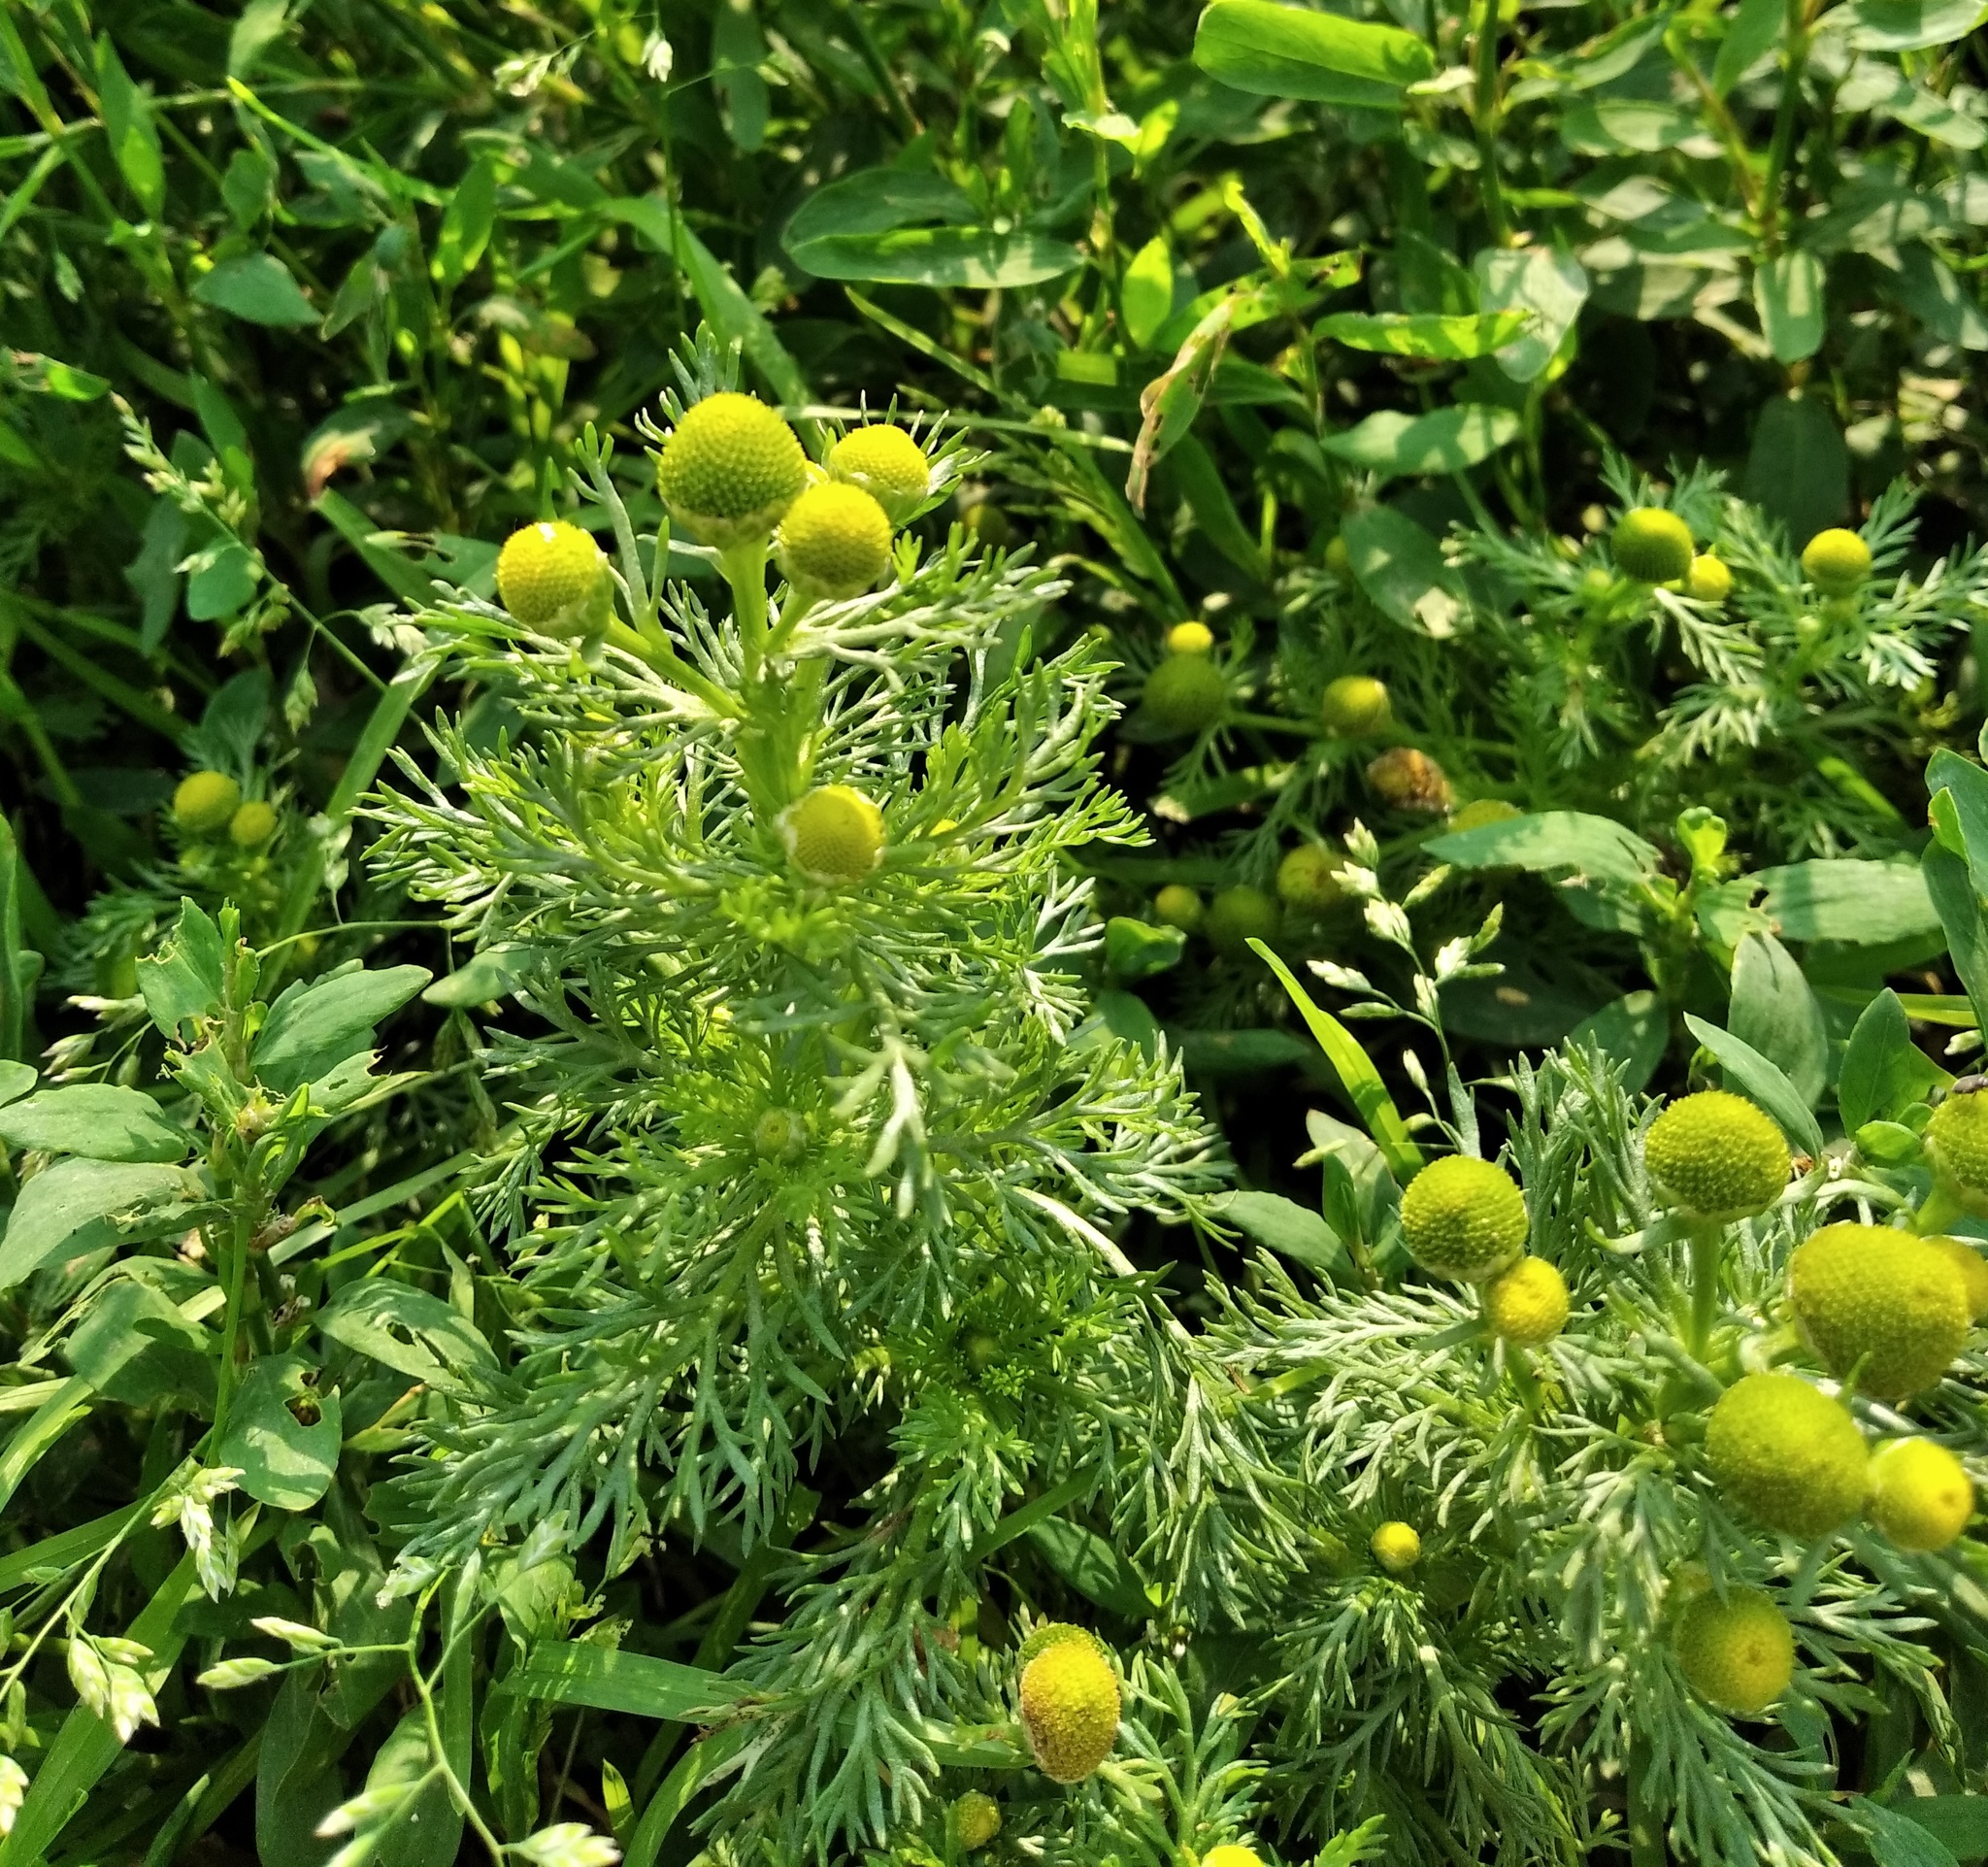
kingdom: Plantae
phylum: Tracheophyta
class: Magnoliopsida
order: Asterales
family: Asteraceae
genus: Matricaria
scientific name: Matricaria discoidea
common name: Disc mayweed
